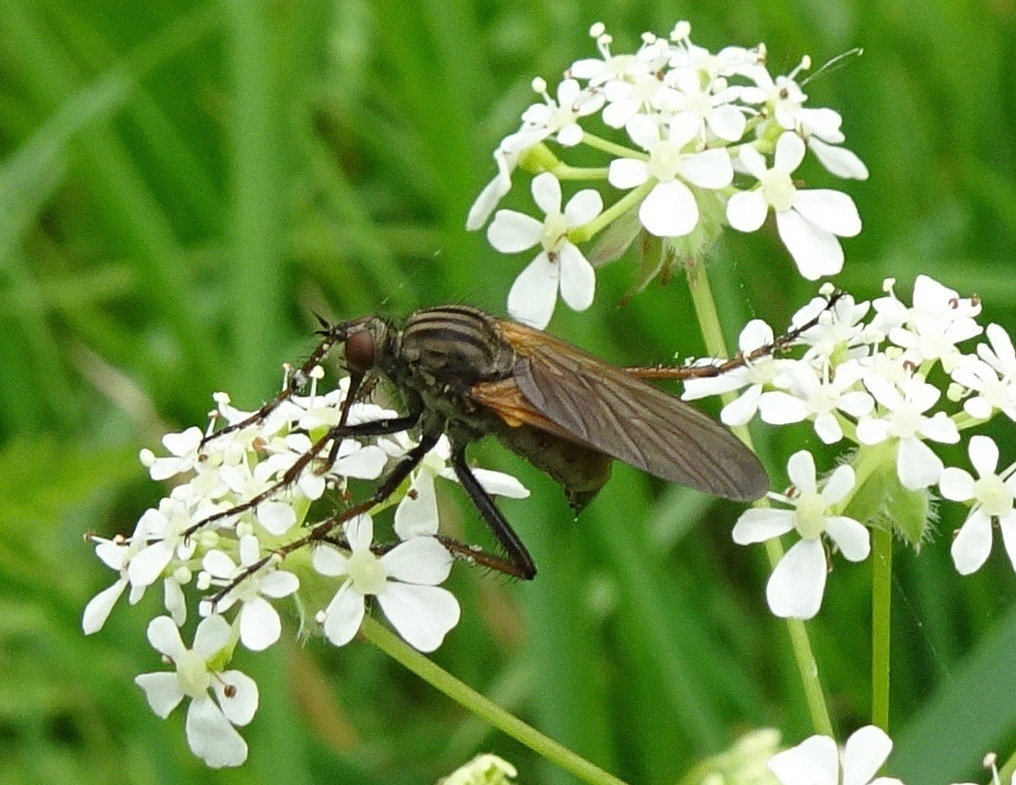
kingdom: Animalia
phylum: Arthropoda
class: Insecta
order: Diptera
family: Empididae
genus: Empis
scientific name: Empis tessellata
